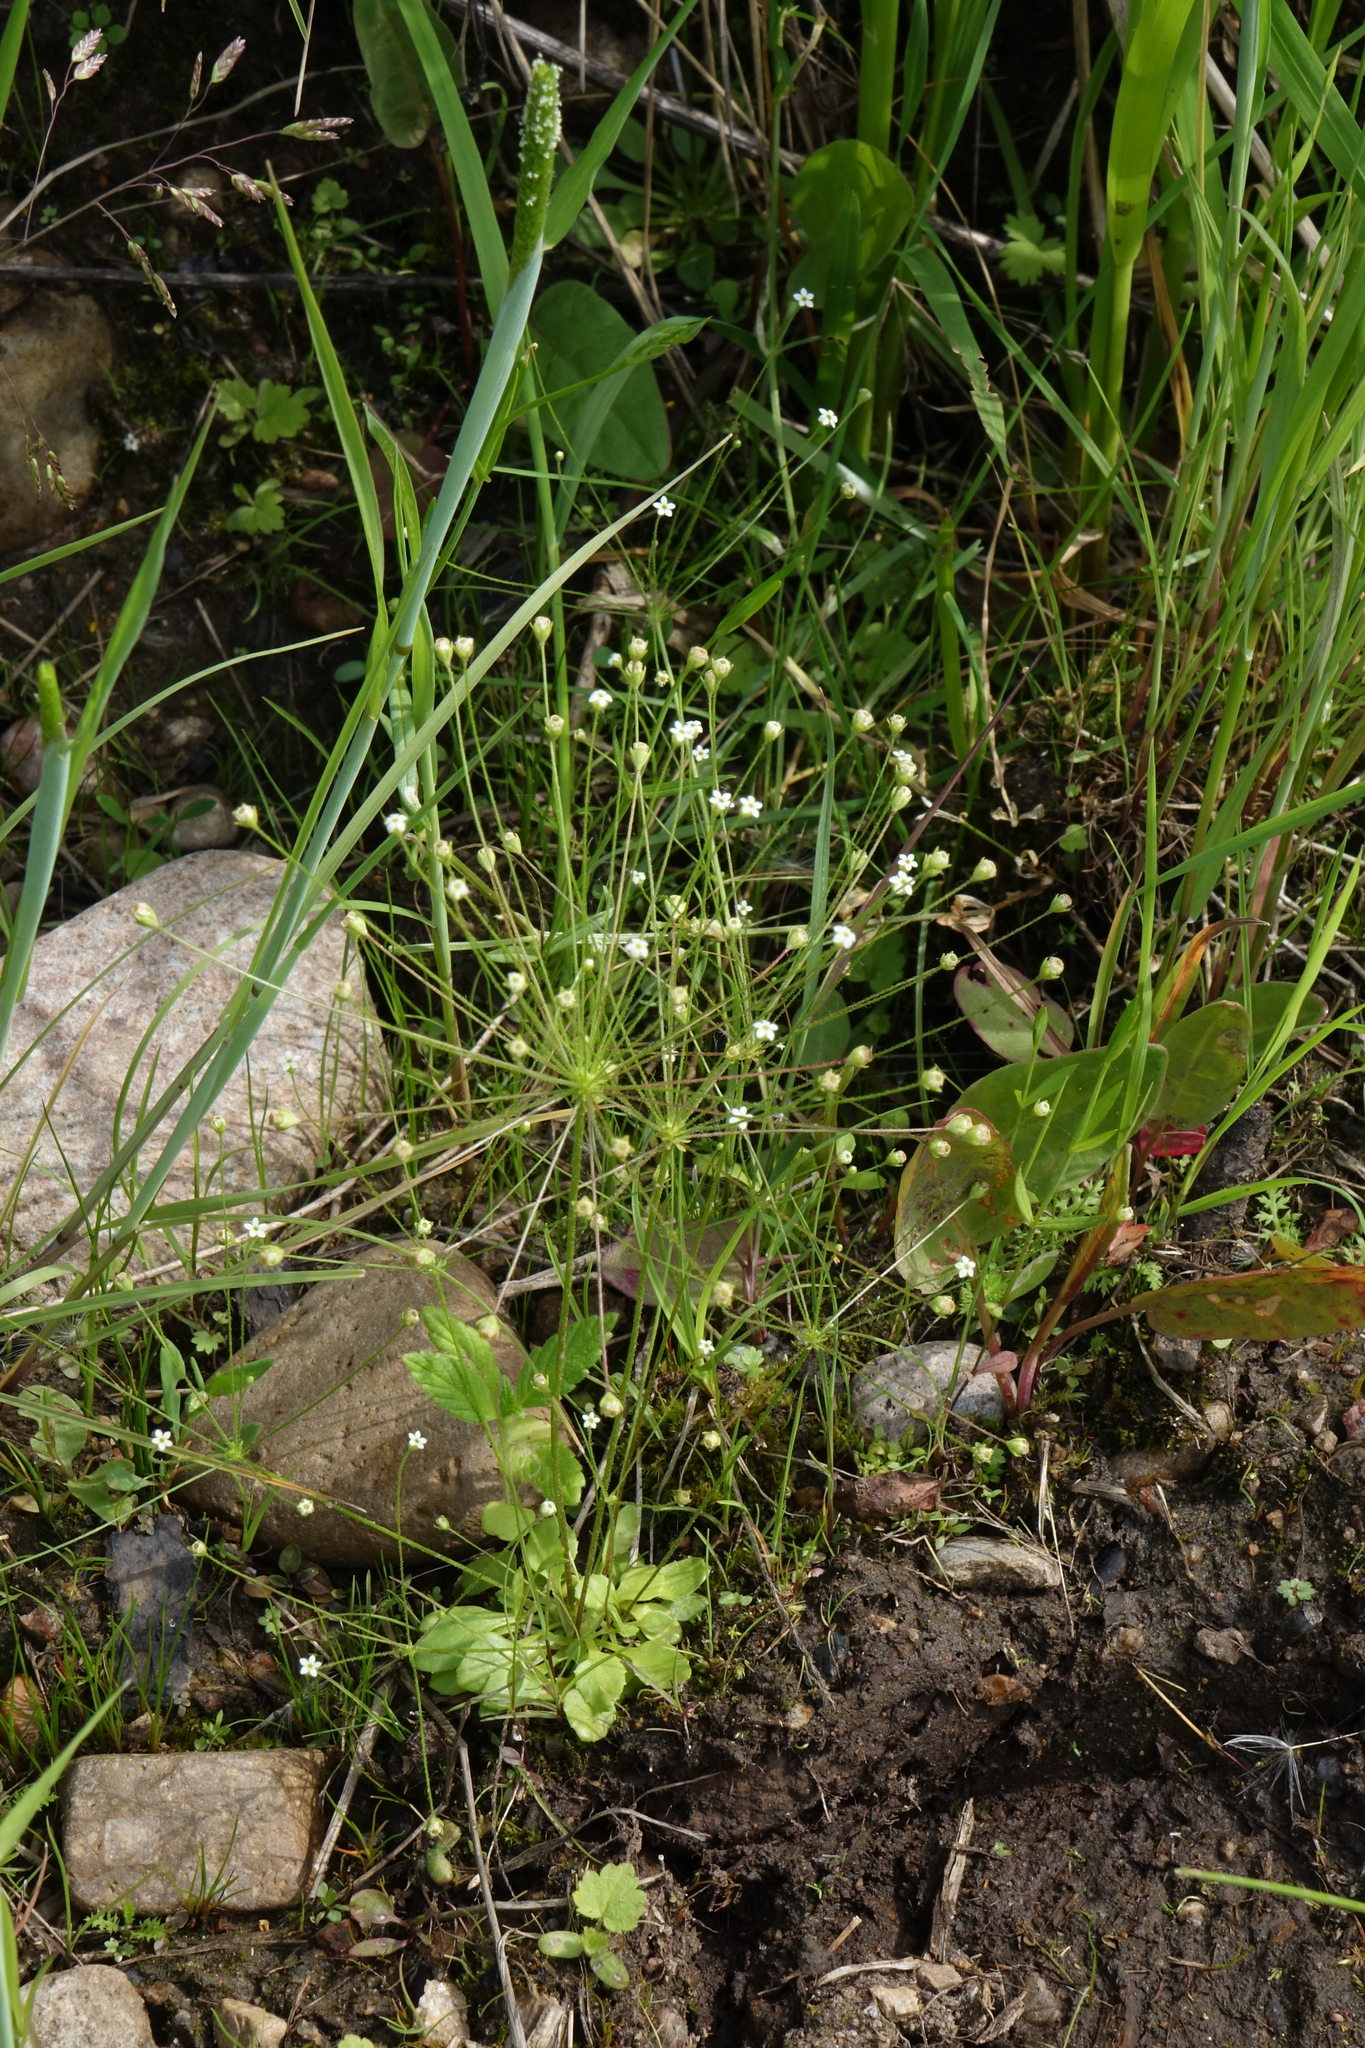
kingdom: Plantae
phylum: Tracheophyta
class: Magnoliopsida
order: Ericales
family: Primulaceae
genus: Androsace
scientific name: Androsace filiformis
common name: Filiform rock jasmine
